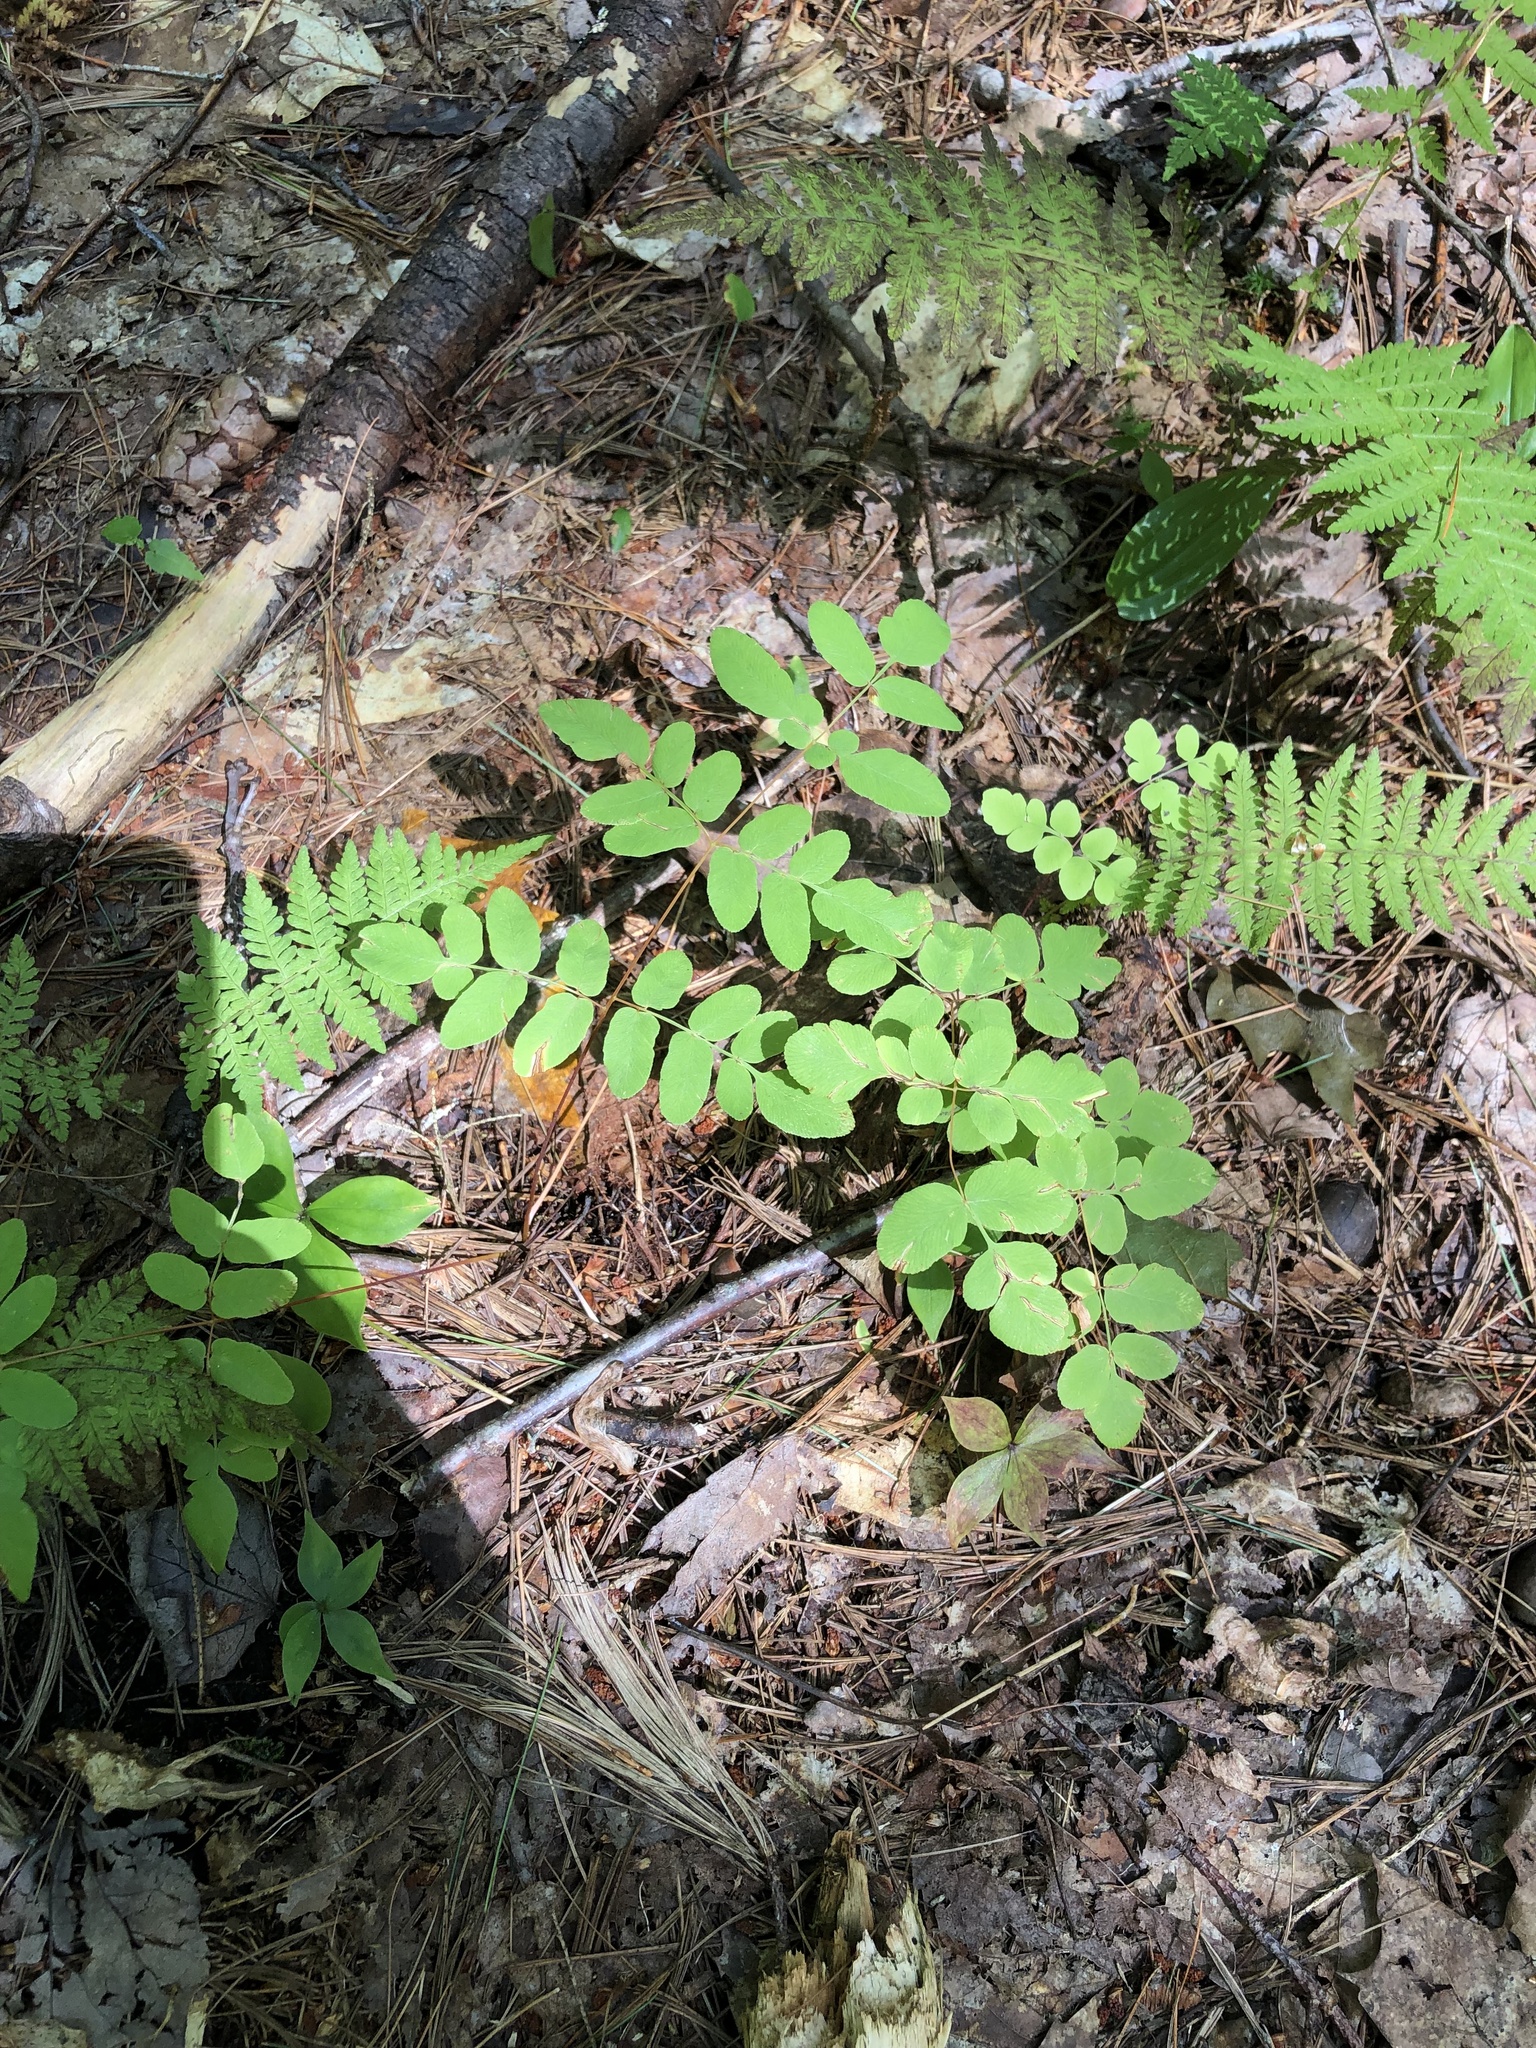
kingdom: Plantae
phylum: Tracheophyta
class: Polypodiopsida
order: Osmundales
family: Osmundaceae
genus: Osmunda
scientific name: Osmunda spectabilis
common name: American royal fern
